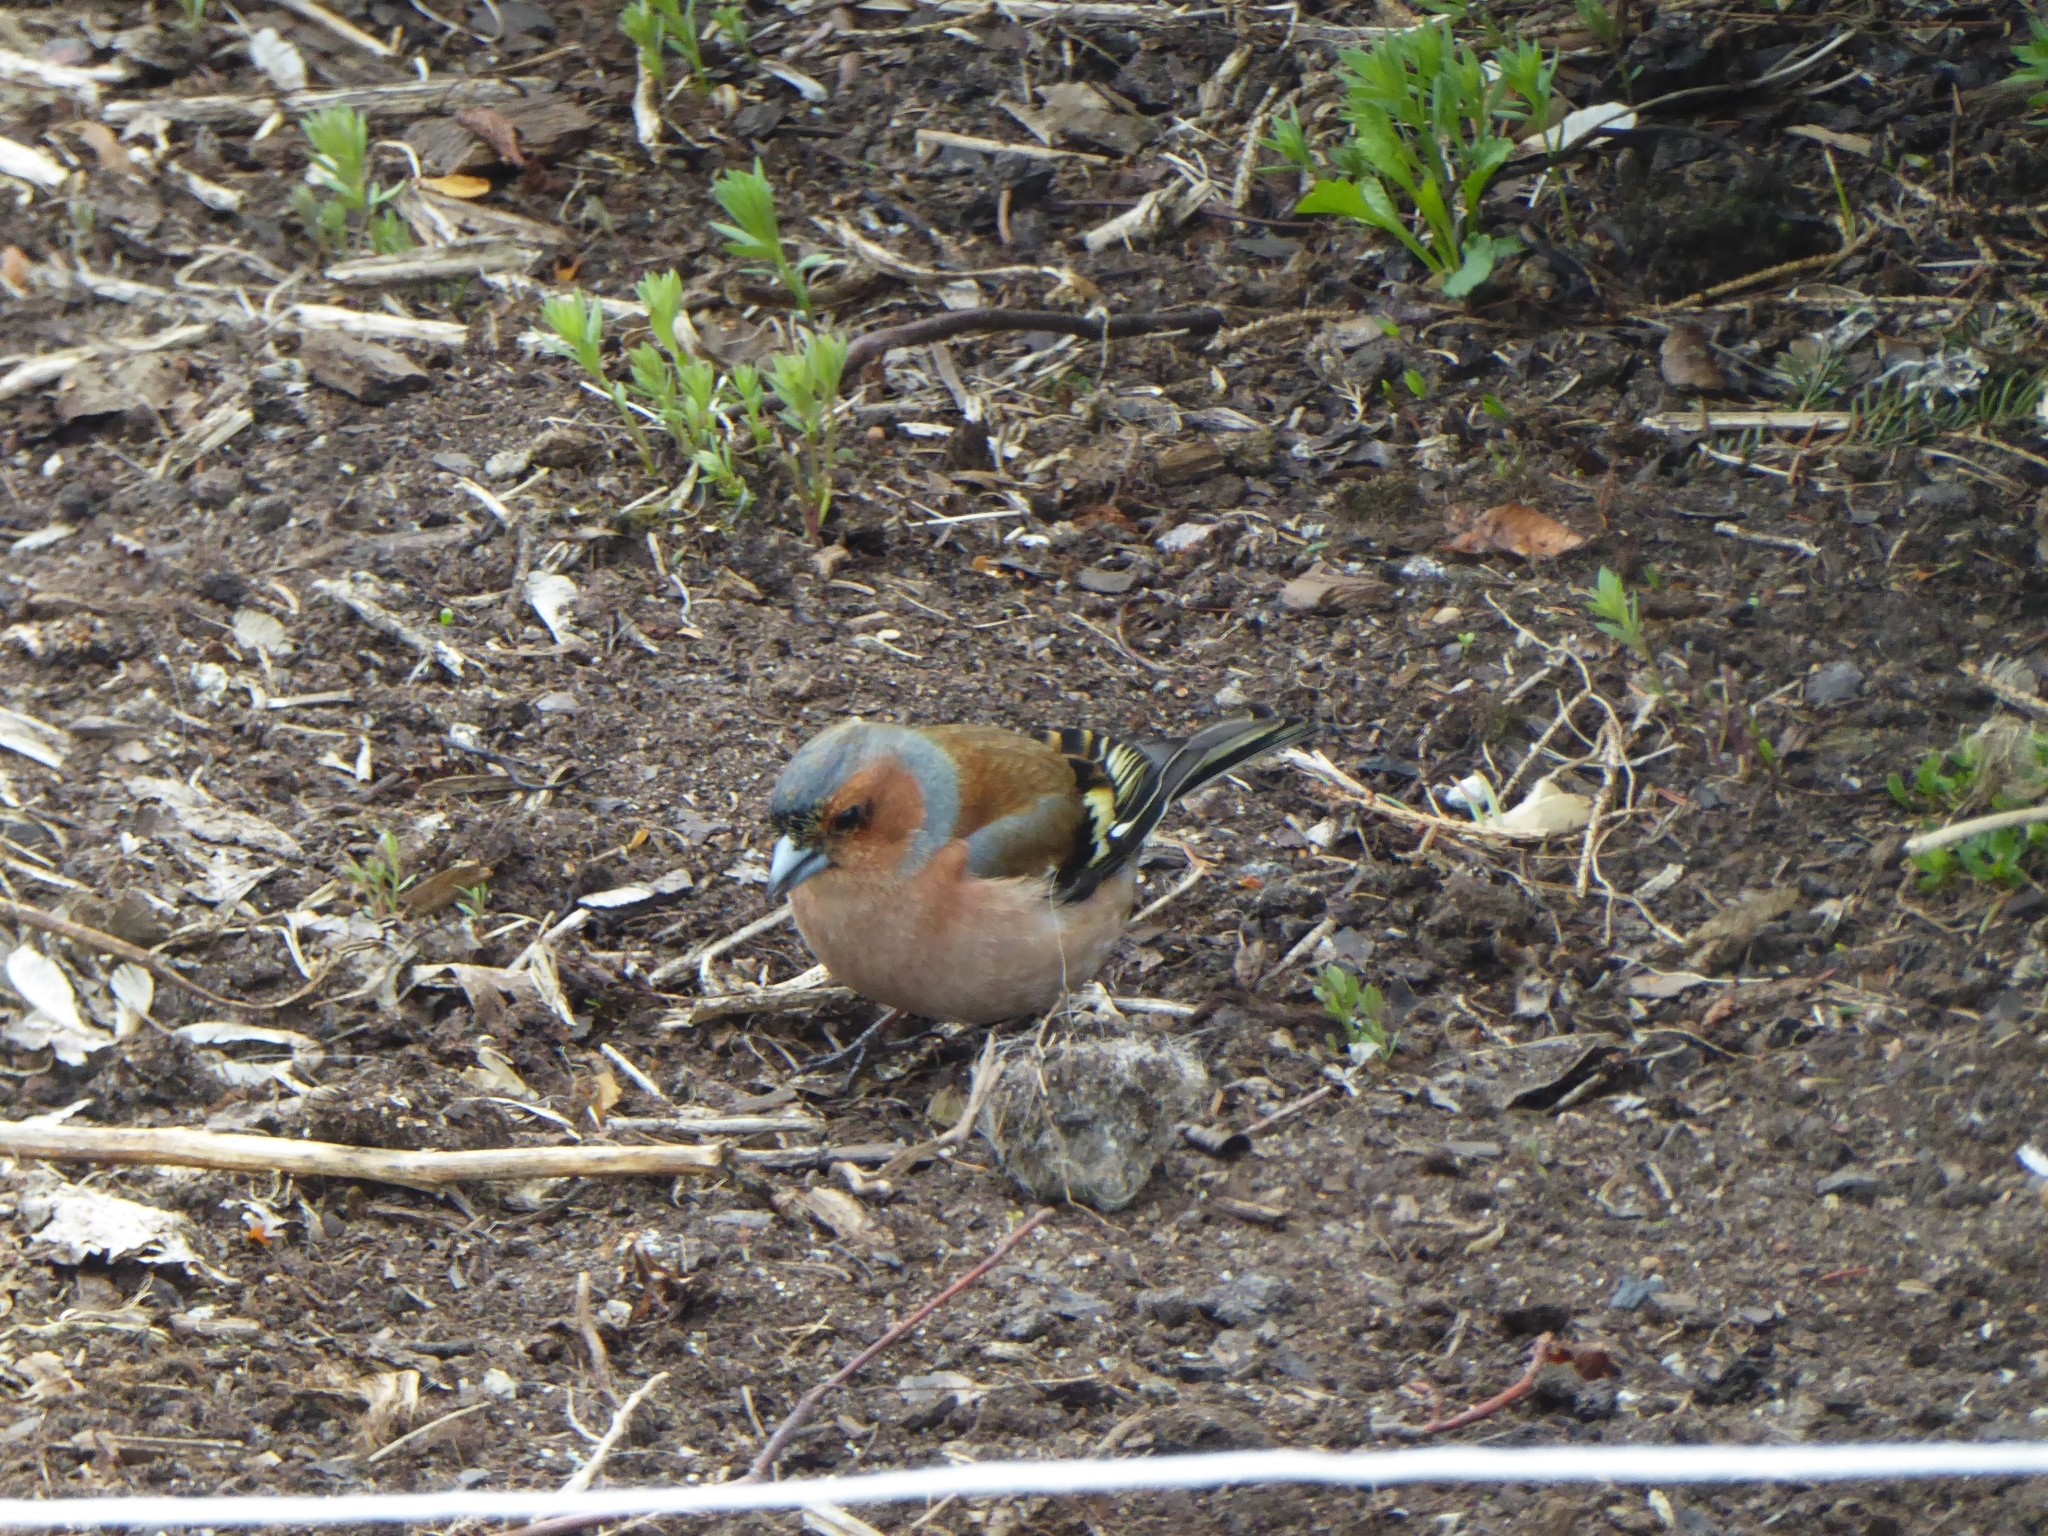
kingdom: Animalia
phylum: Chordata
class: Aves
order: Passeriformes
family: Fringillidae
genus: Fringilla
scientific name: Fringilla coelebs
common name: Common chaffinch
